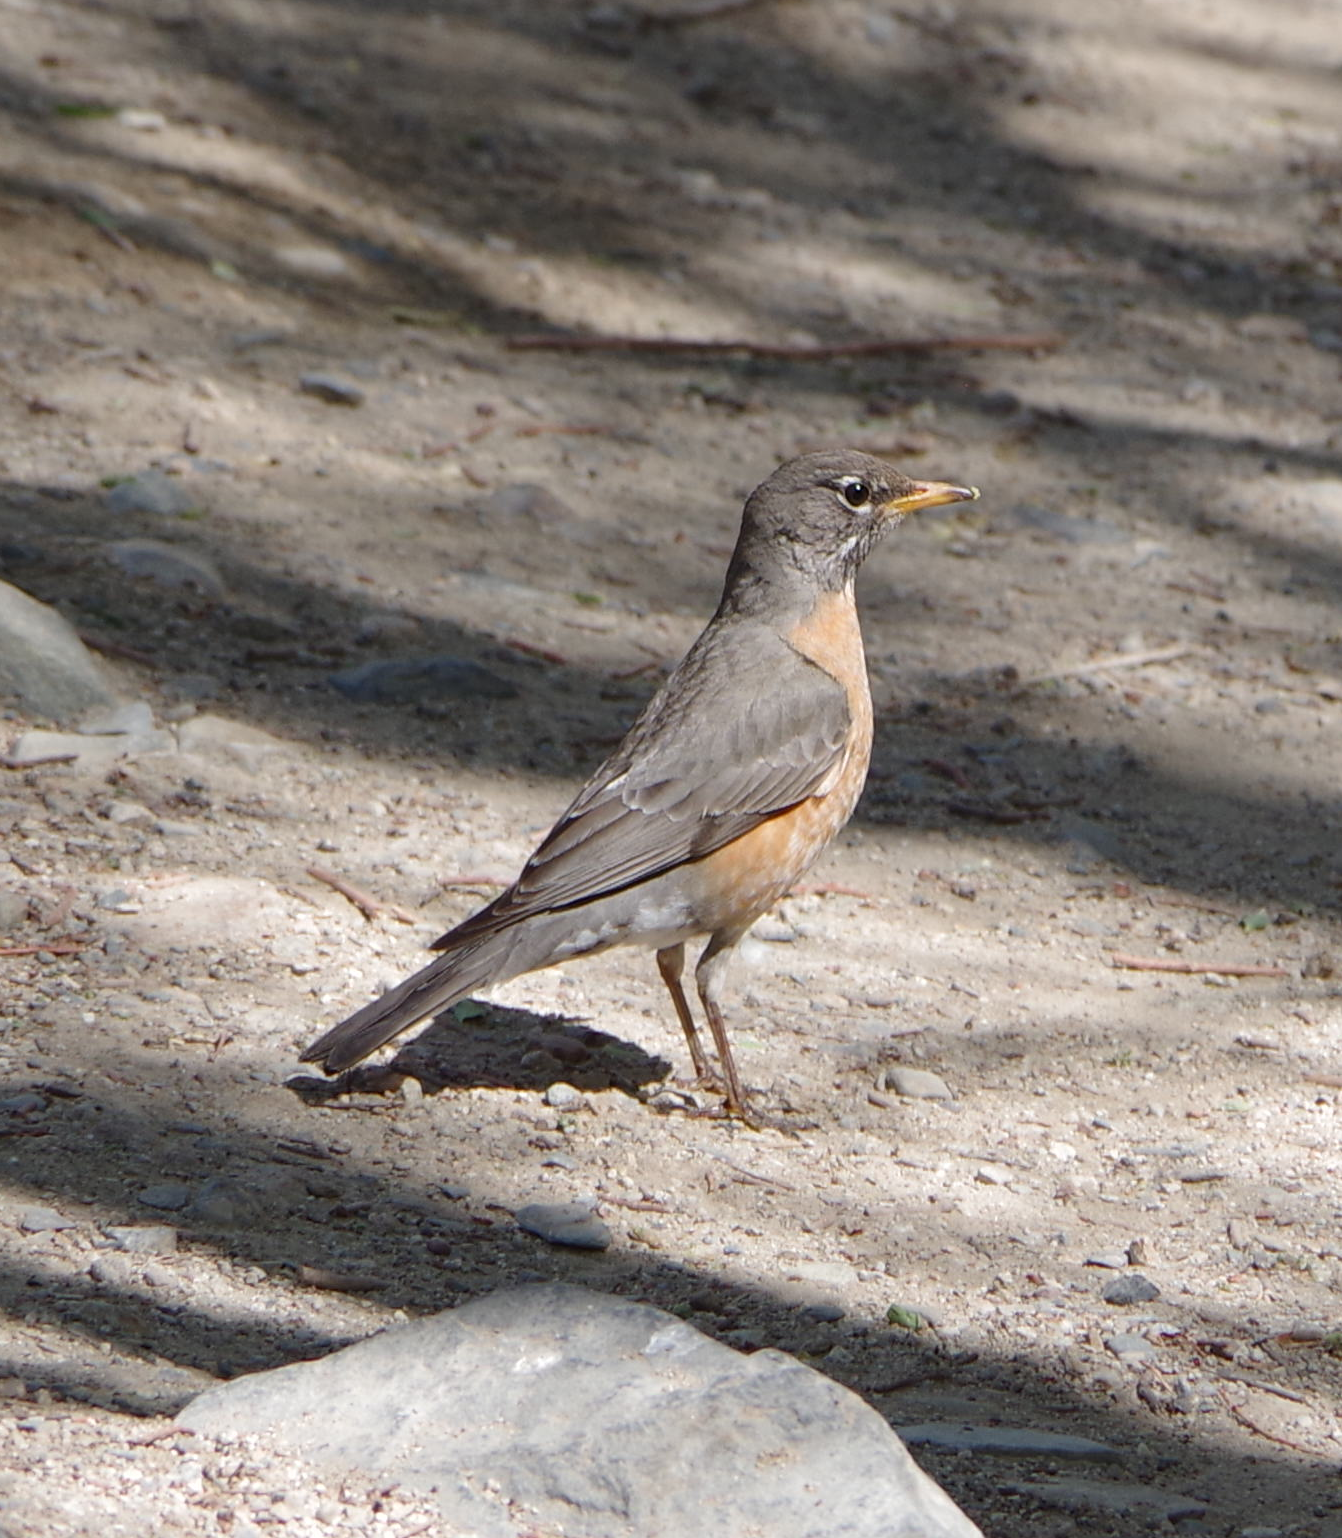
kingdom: Animalia
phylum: Chordata
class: Aves
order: Passeriformes
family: Turdidae
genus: Turdus
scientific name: Turdus migratorius
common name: American robin
